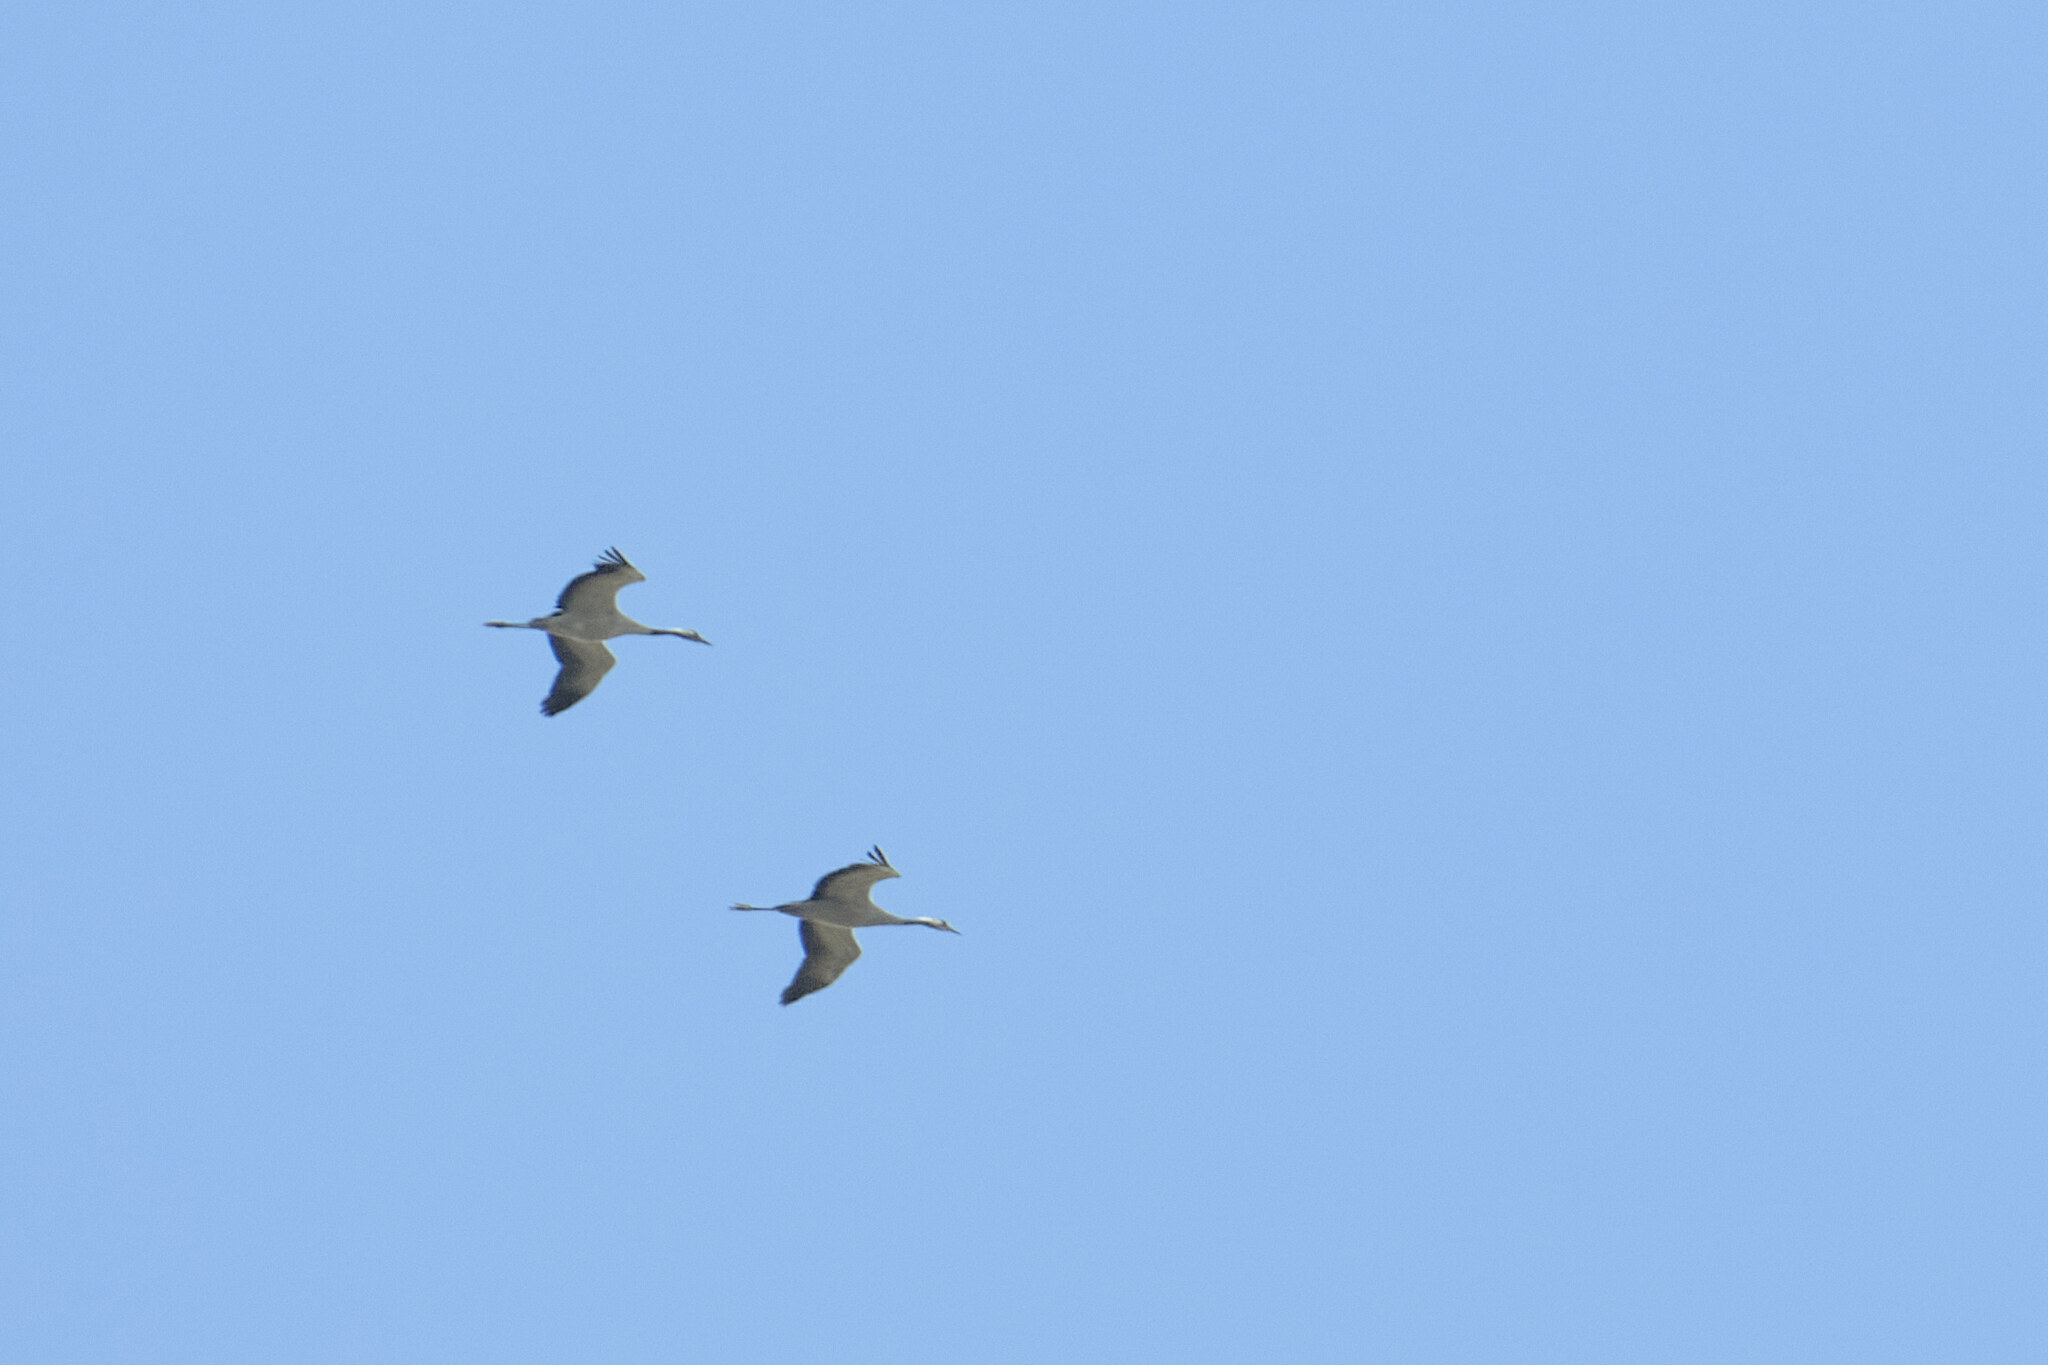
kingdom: Animalia
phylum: Chordata
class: Aves
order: Gruiformes
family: Gruidae
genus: Grus
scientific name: Grus grus
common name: Common crane
